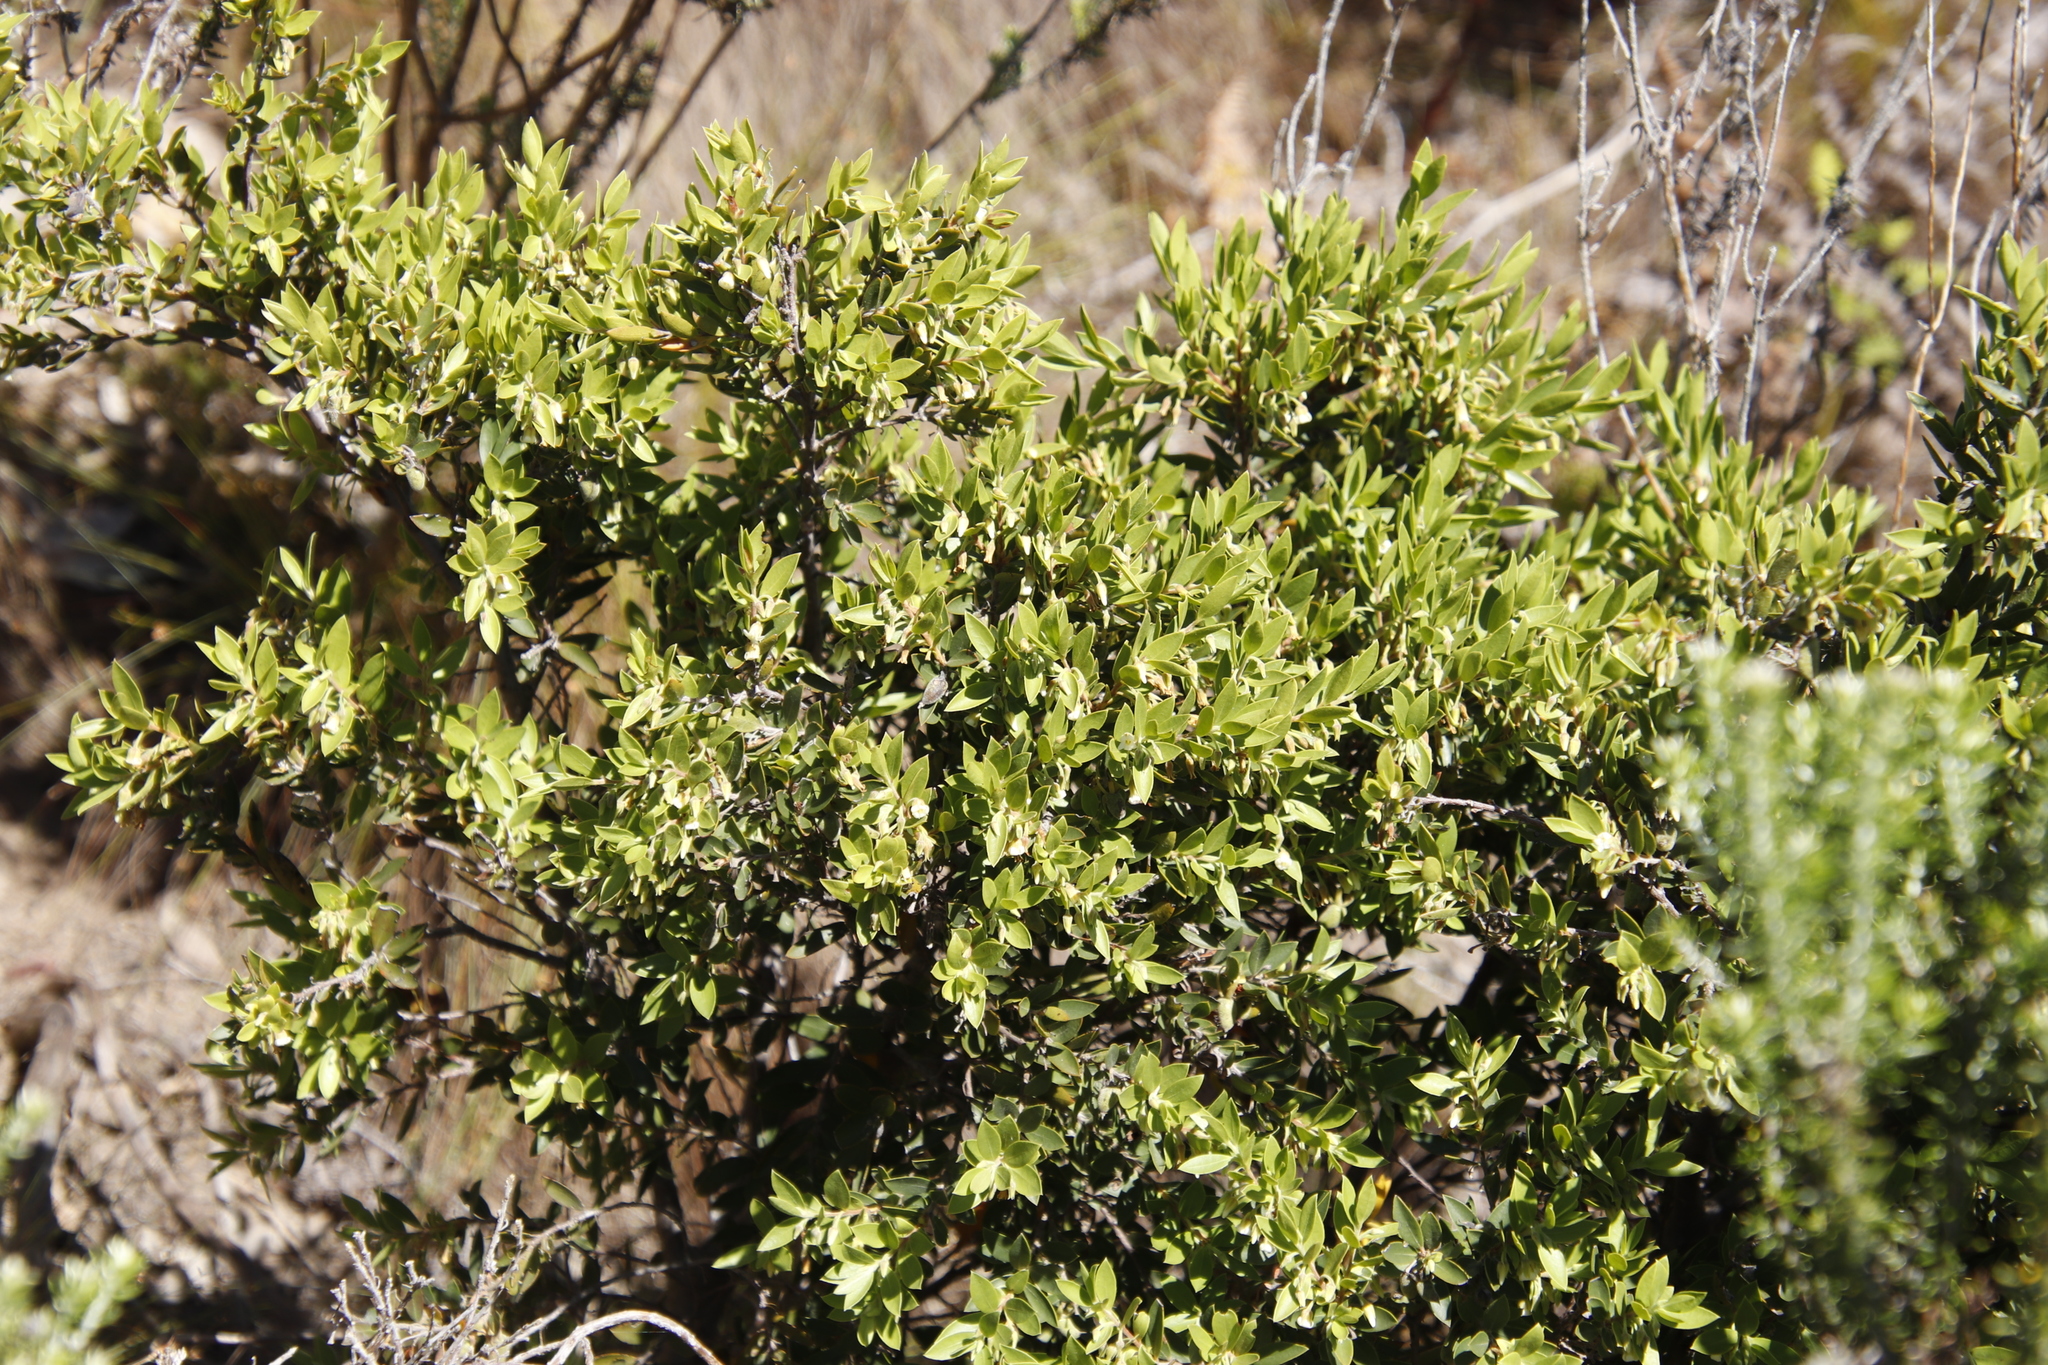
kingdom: Plantae
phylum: Tracheophyta
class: Magnoliopsida
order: Ericales
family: Ebenaceae
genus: Diospyros
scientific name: Diospyros glabra
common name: Fynbos star apple
